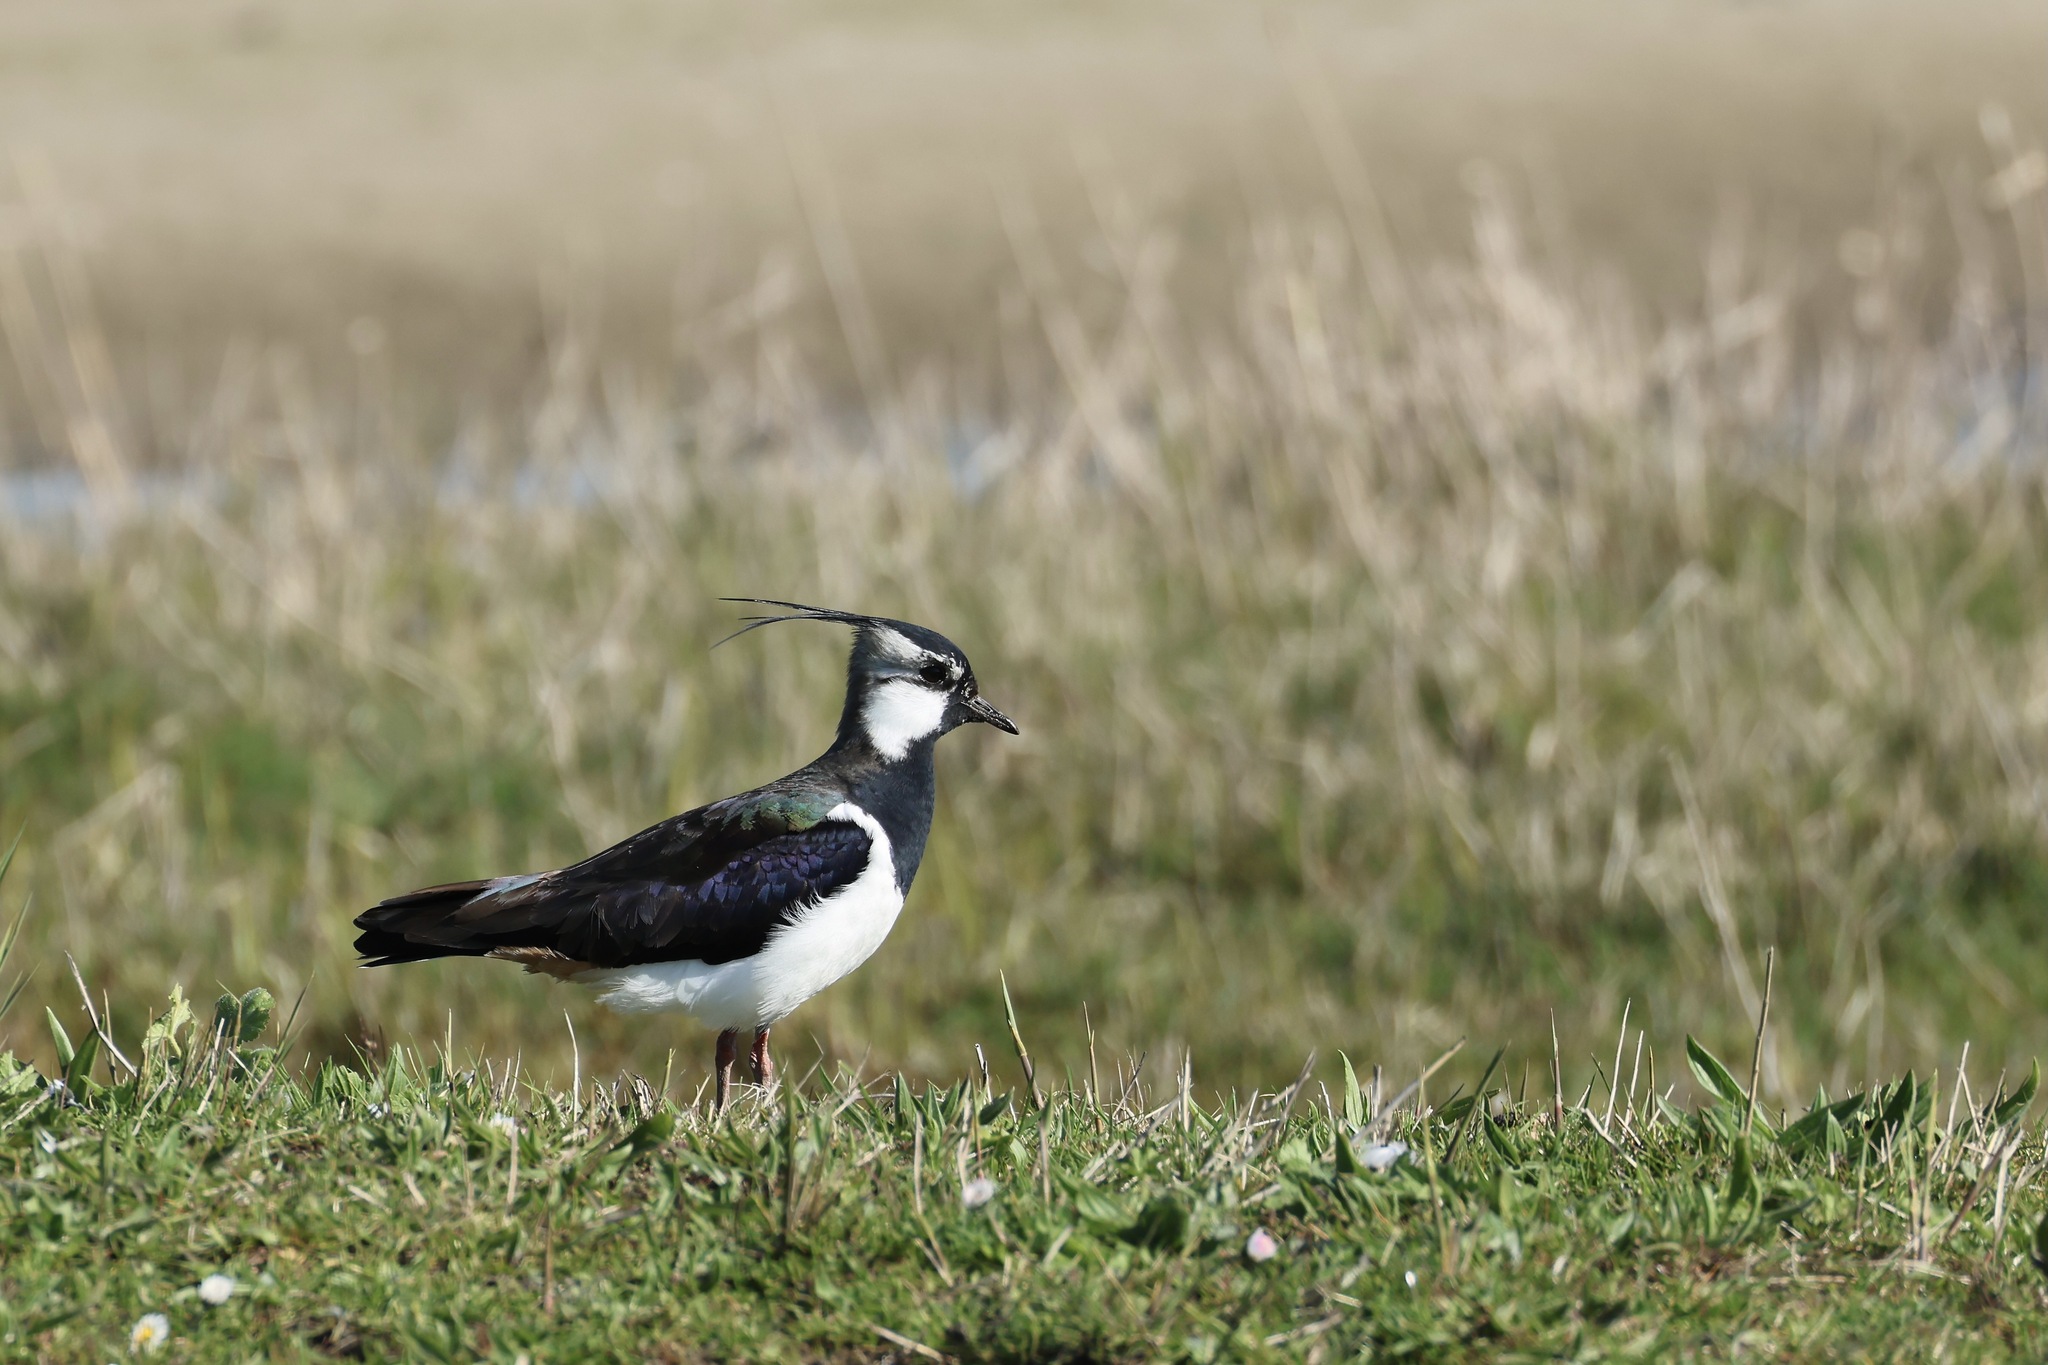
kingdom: Animalia
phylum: Chordata
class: Aves
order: Charadriiformes
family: Charadriidae
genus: Vanellus
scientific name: Vanellus vanellus
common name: Northern lapwing
